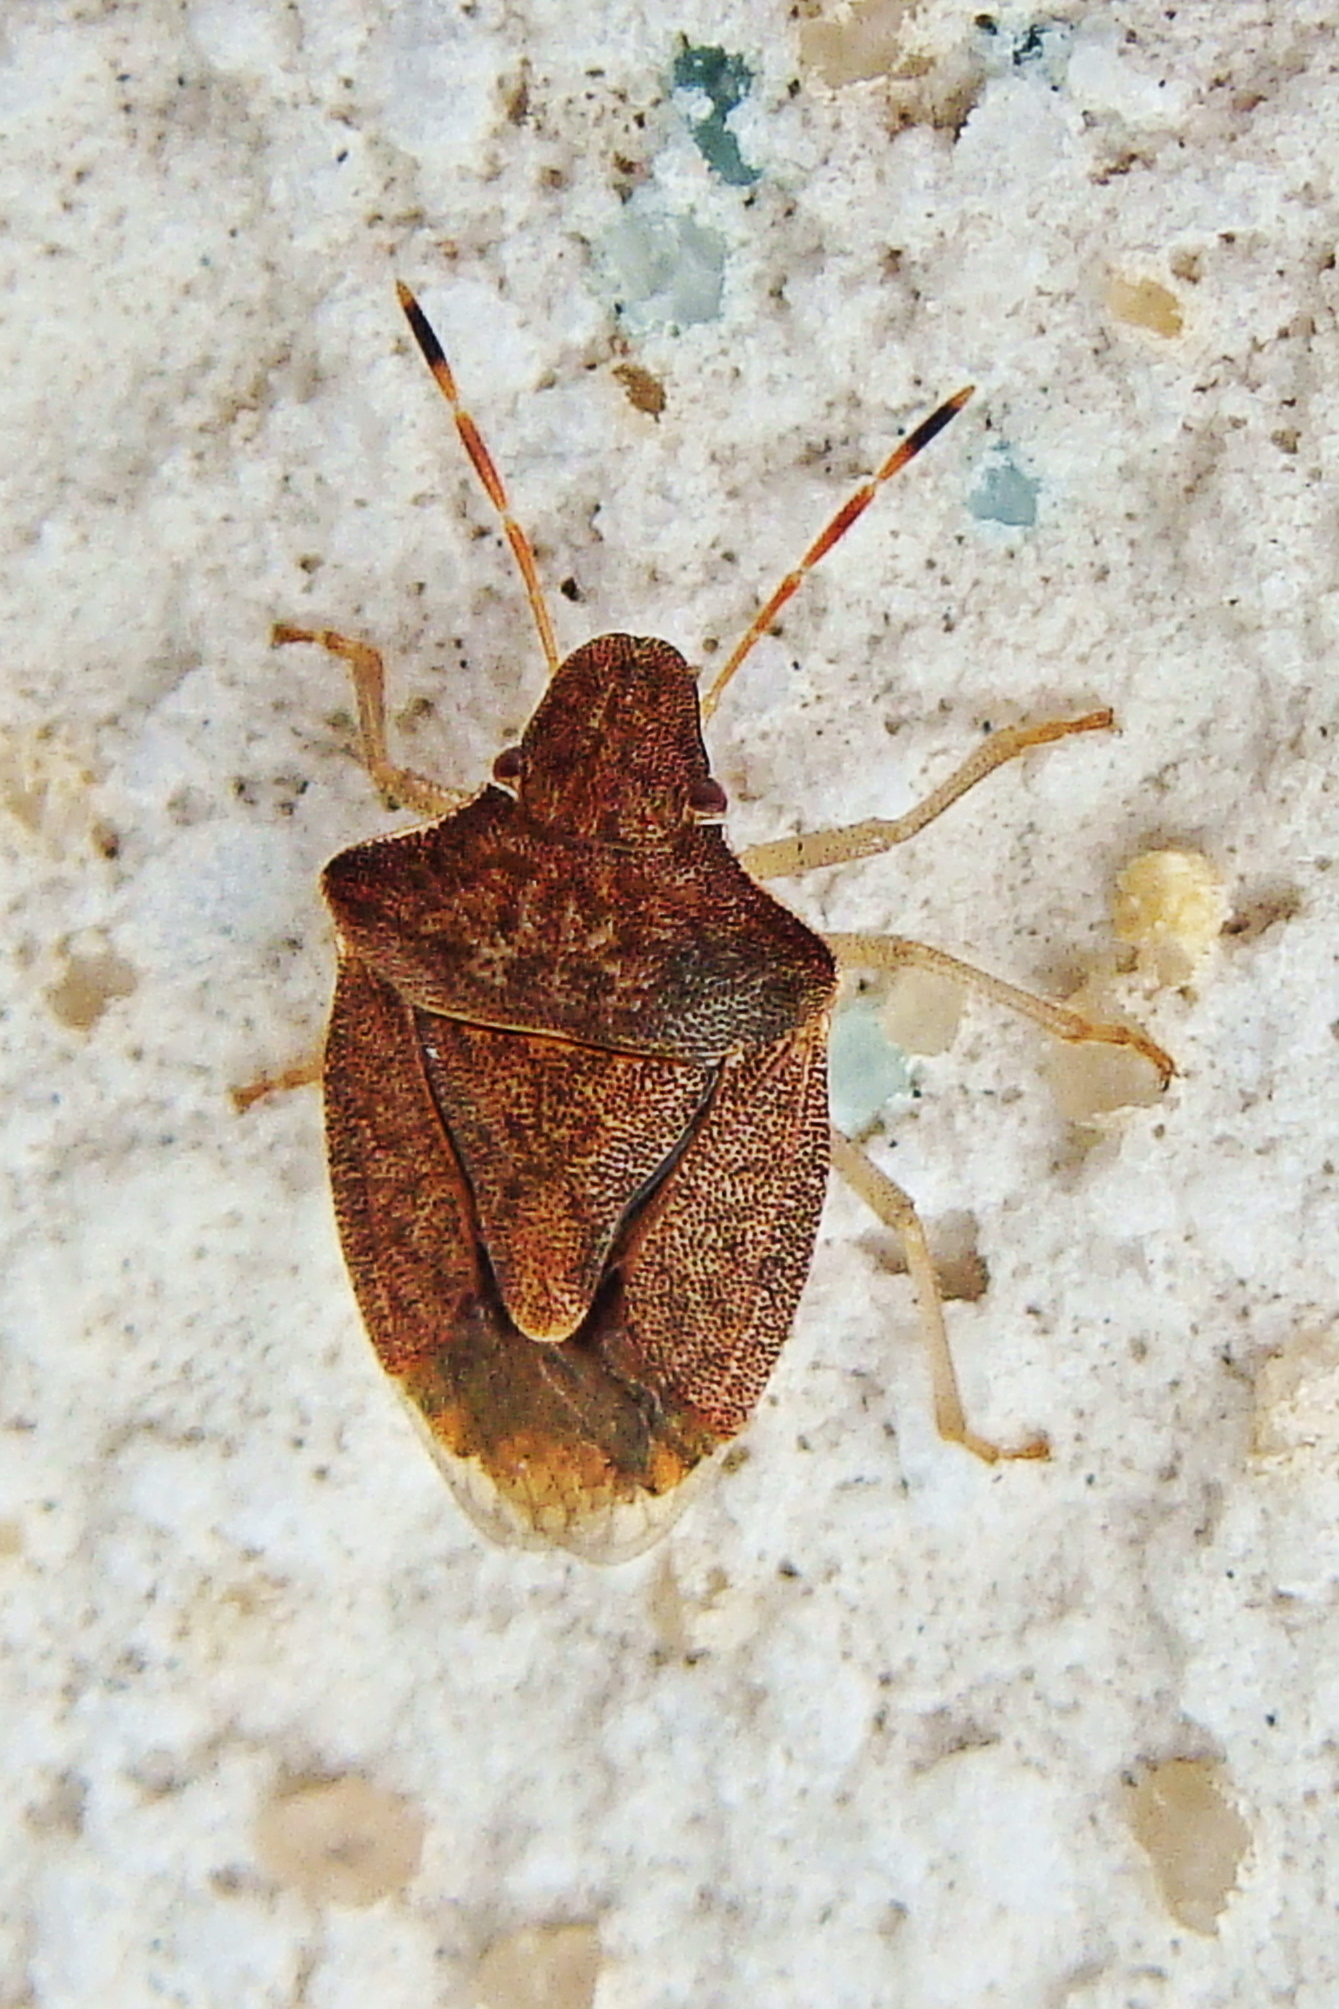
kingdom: Animalia
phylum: Arthropoda
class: Insecta
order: Hemiptera
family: Pentatomidae
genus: Holcostethus
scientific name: Holcostethus strictus
